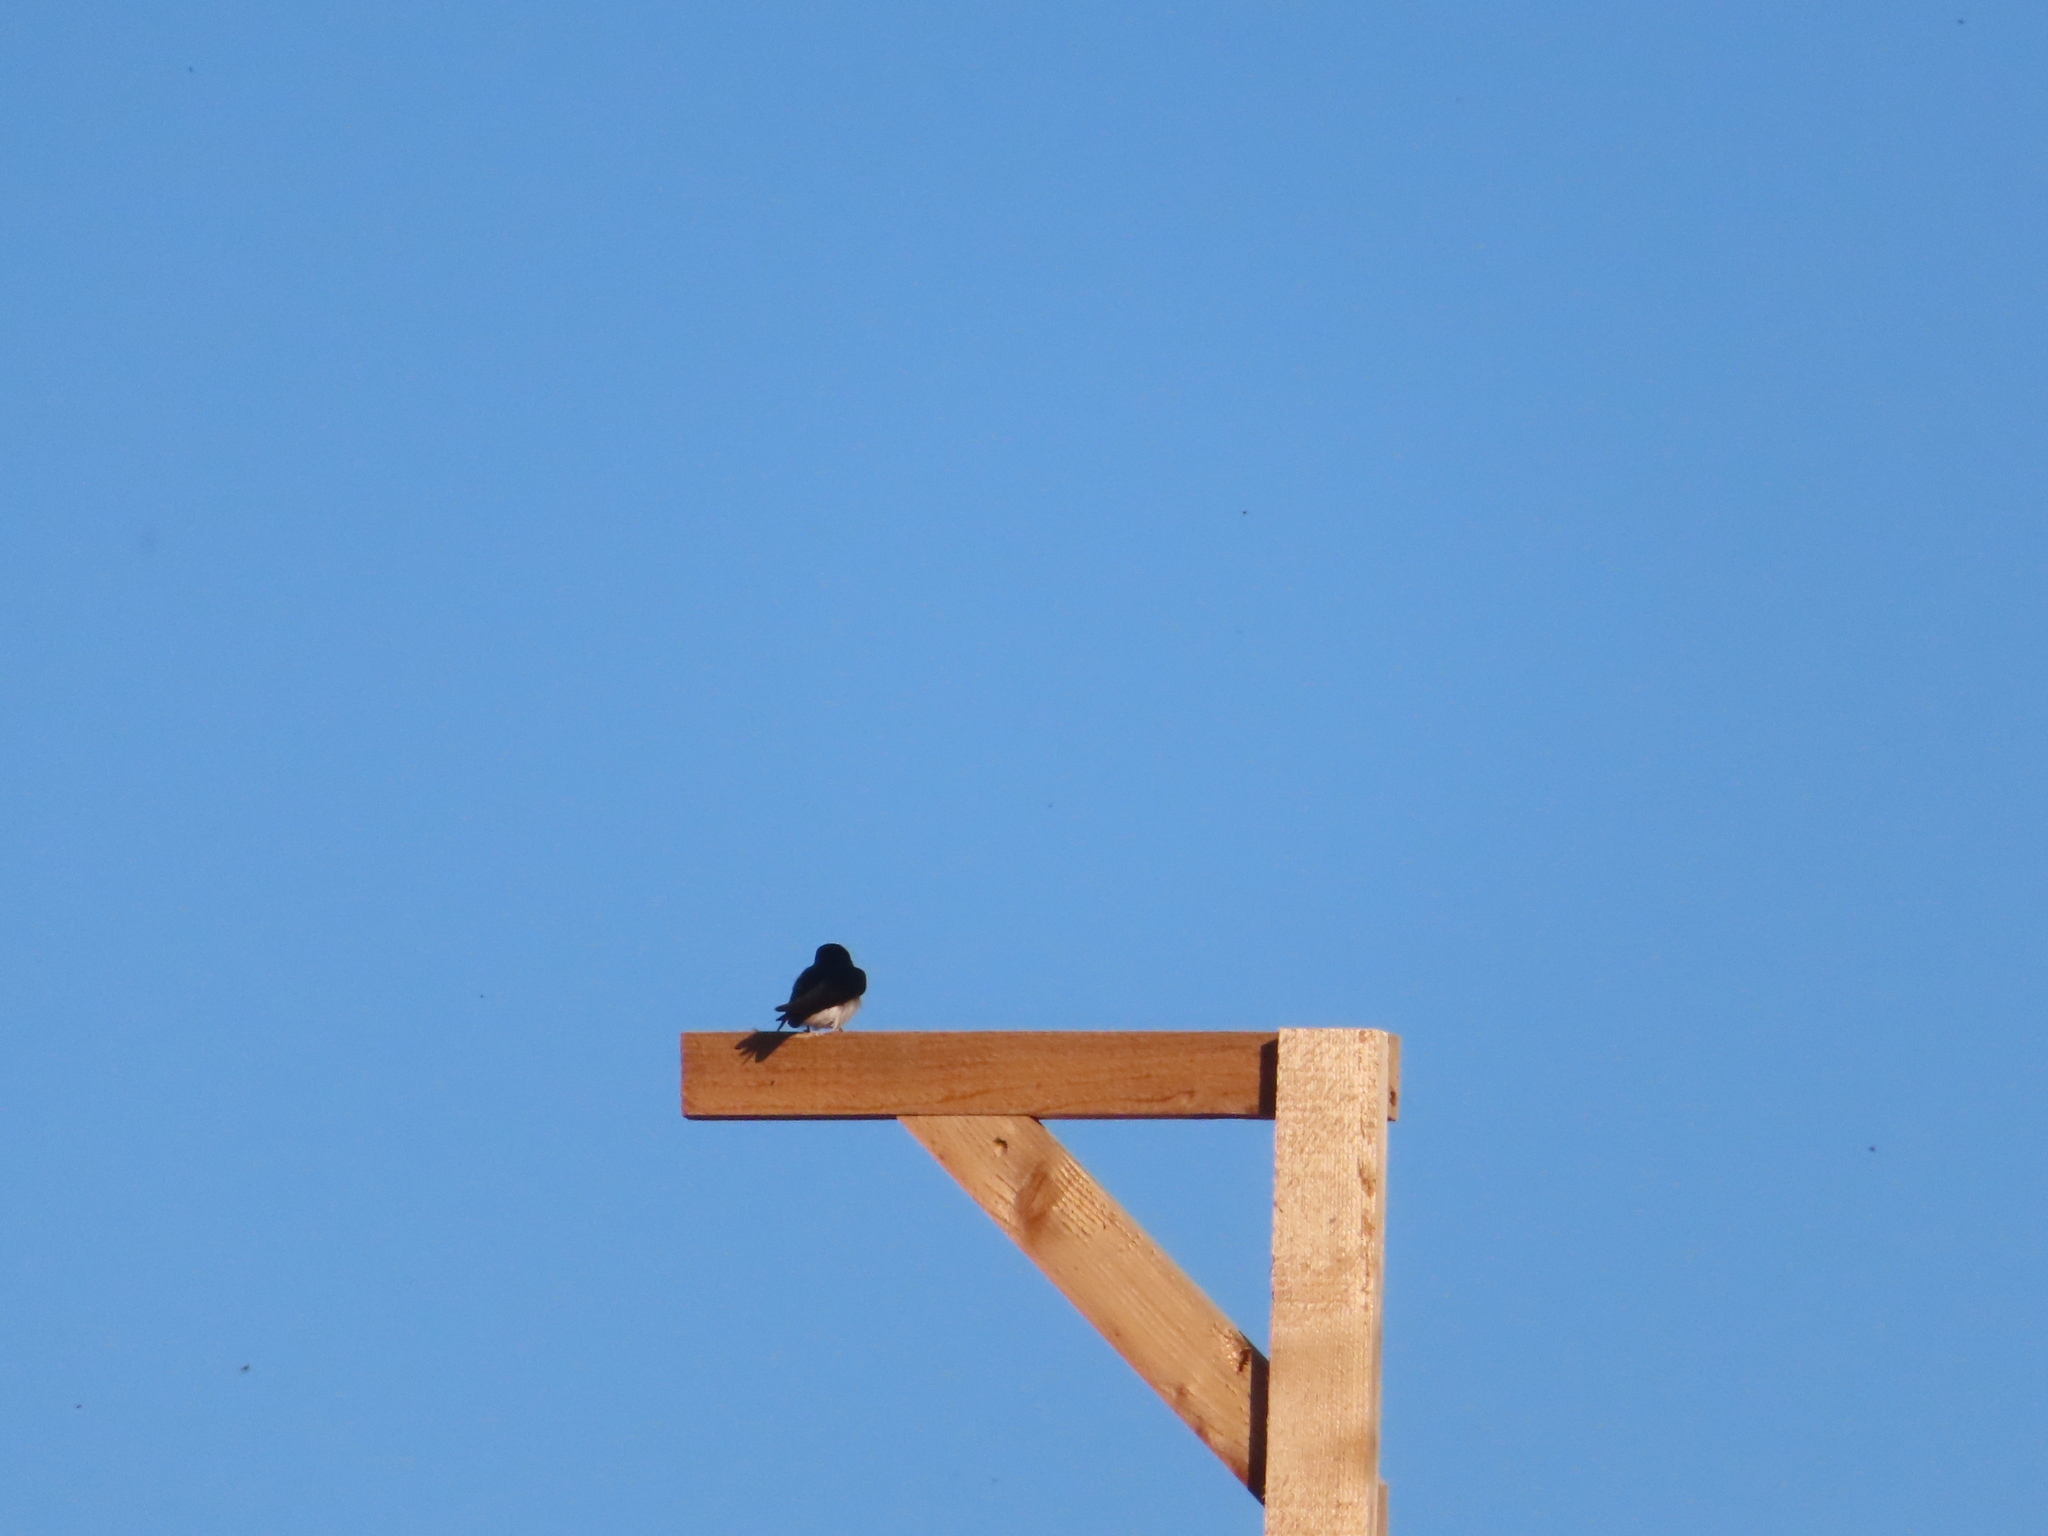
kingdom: Animalia
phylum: Chordata
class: Aves
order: Passeriformes
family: Hirundinidae
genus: Tachycineta
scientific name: Tachycineta bicolor
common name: Tree swallow
